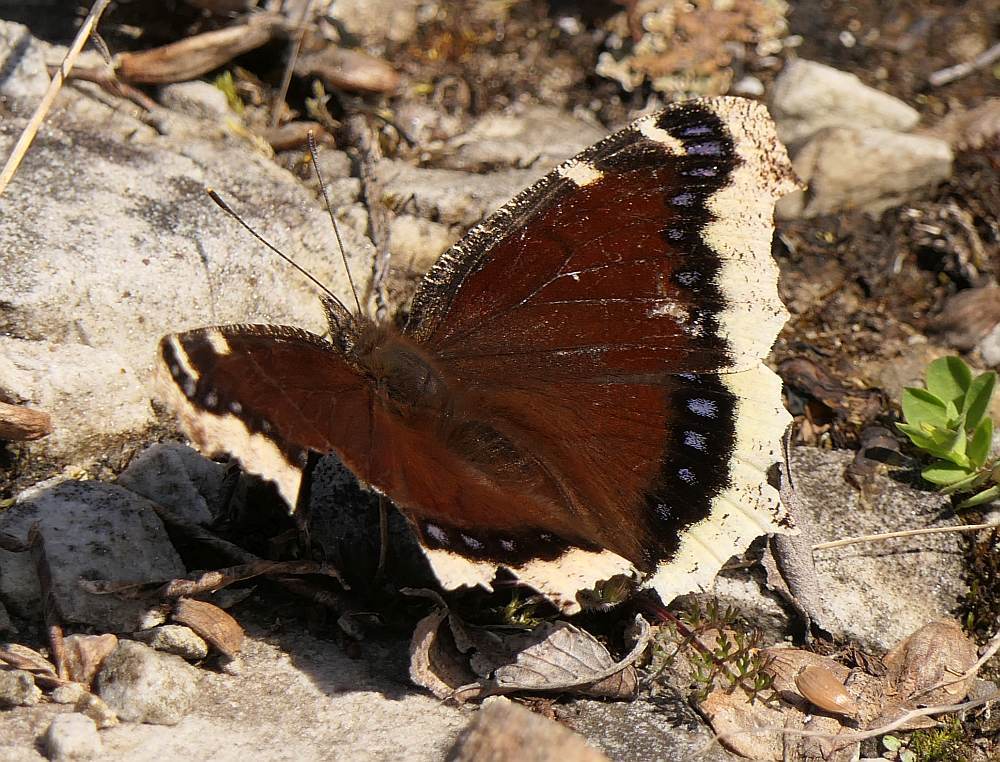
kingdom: Animalia
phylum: Arthropoda
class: Insecta
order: Lepidoptera
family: Nymphalidae
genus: Nymphalis
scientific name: Nymphalis antiopa
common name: Camberwell beauty
